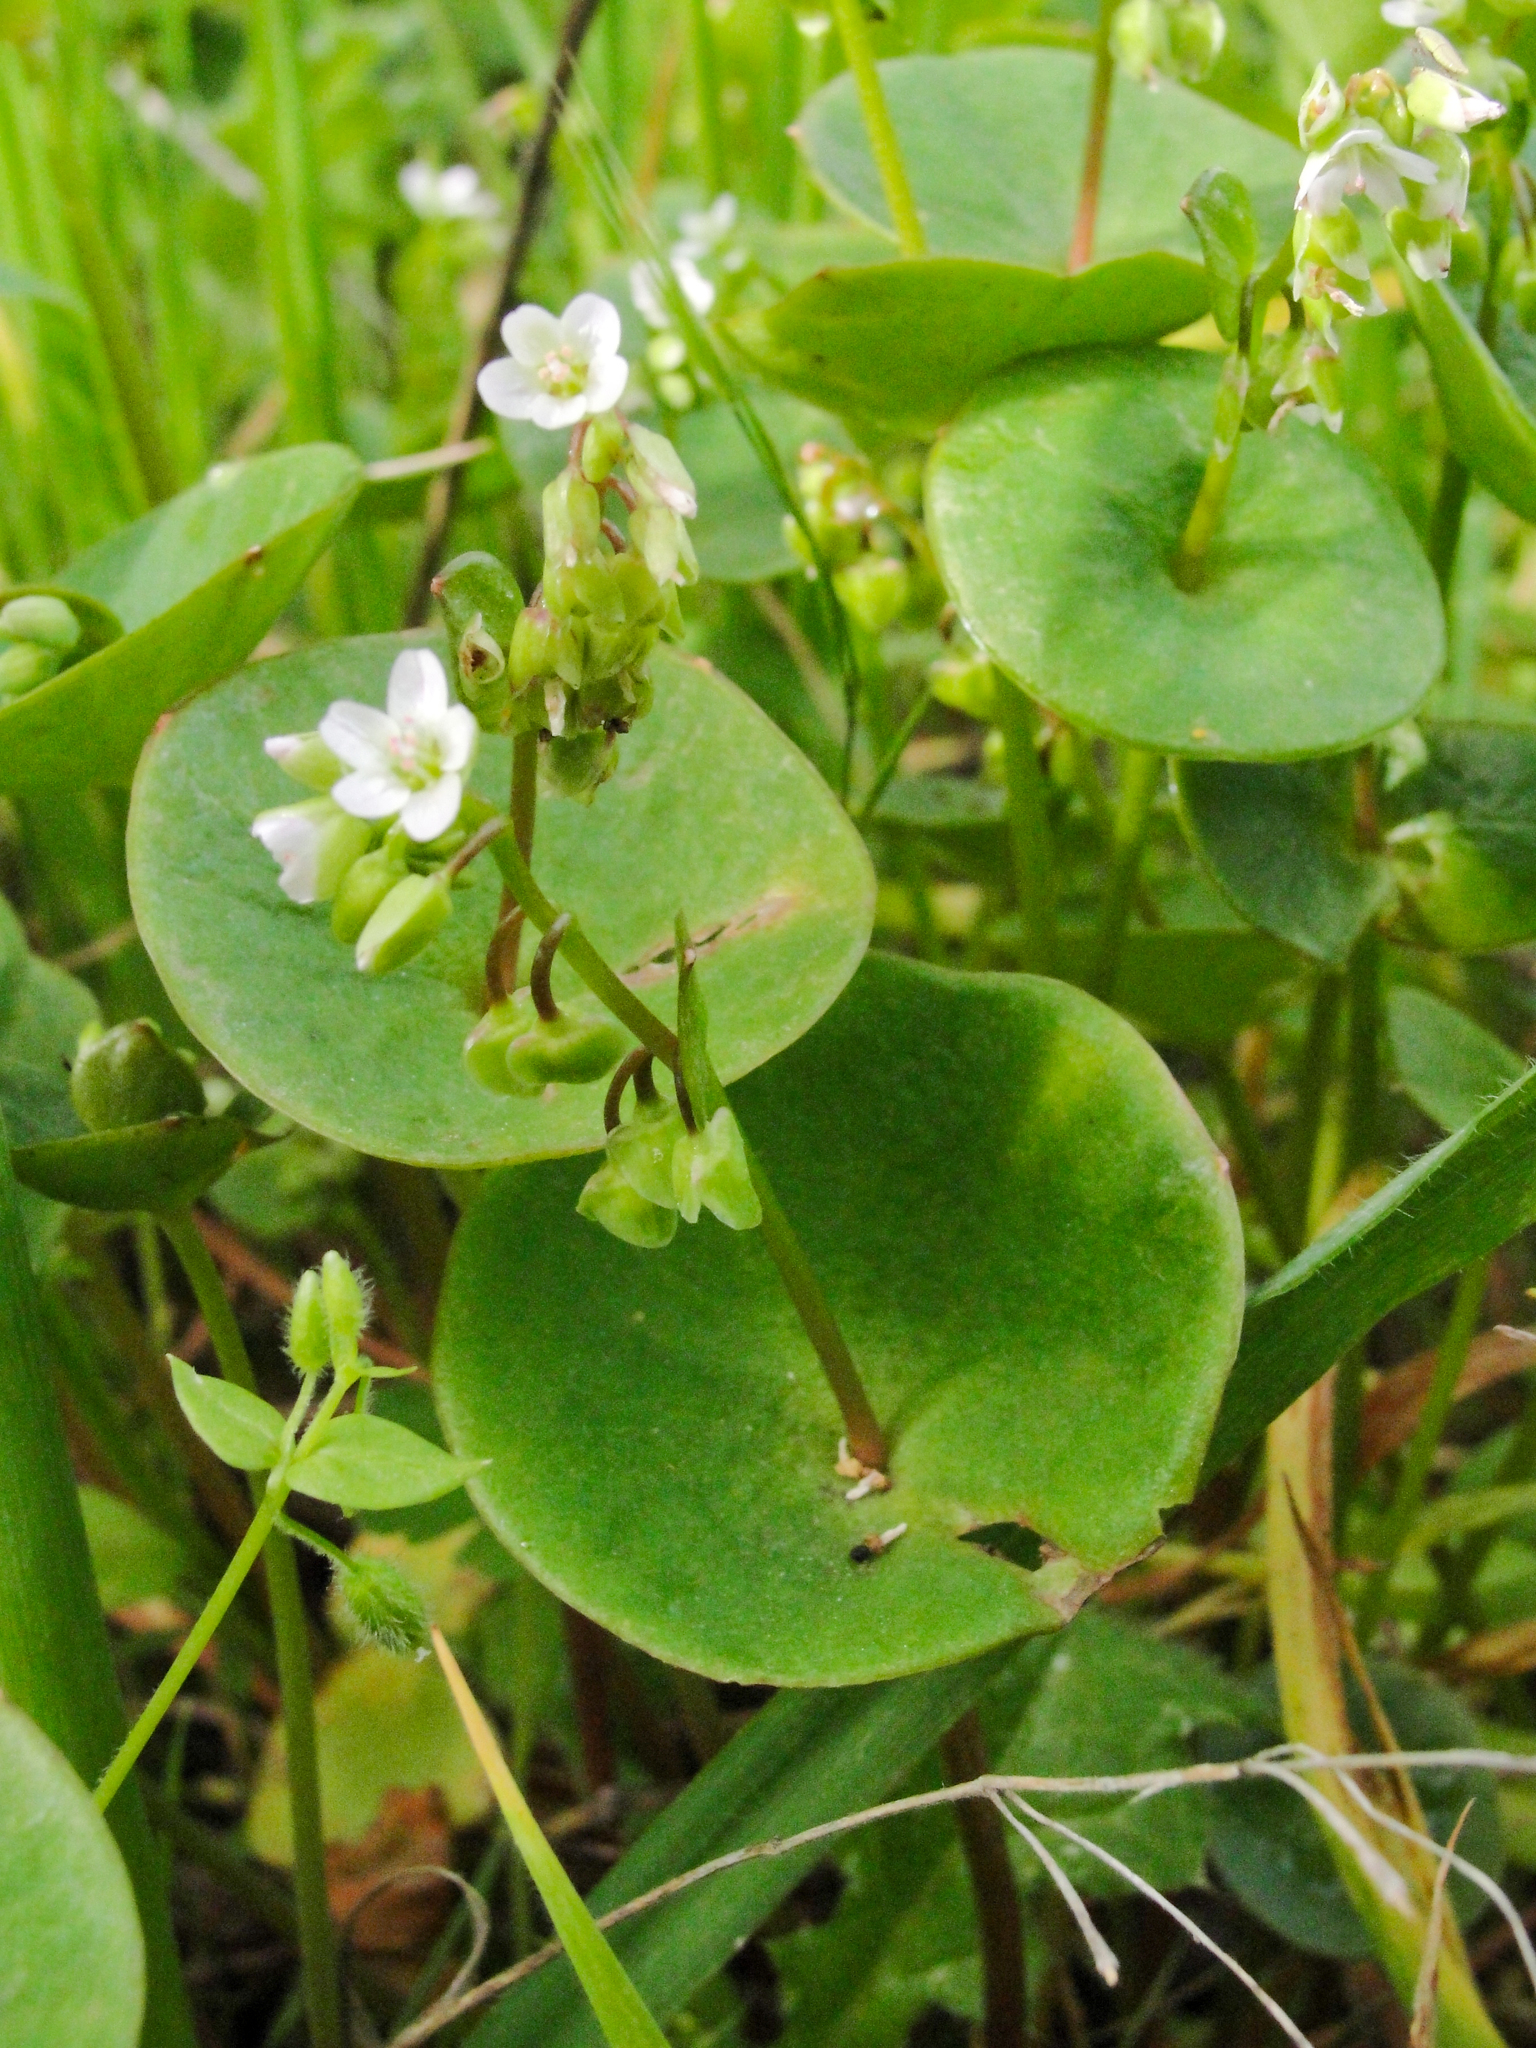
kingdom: Plantae
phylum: Tracheophyta
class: Magnoliopsida
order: Caryophyllales
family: Montiaceae
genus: Claytonia
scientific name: Claytonia perfoliata
